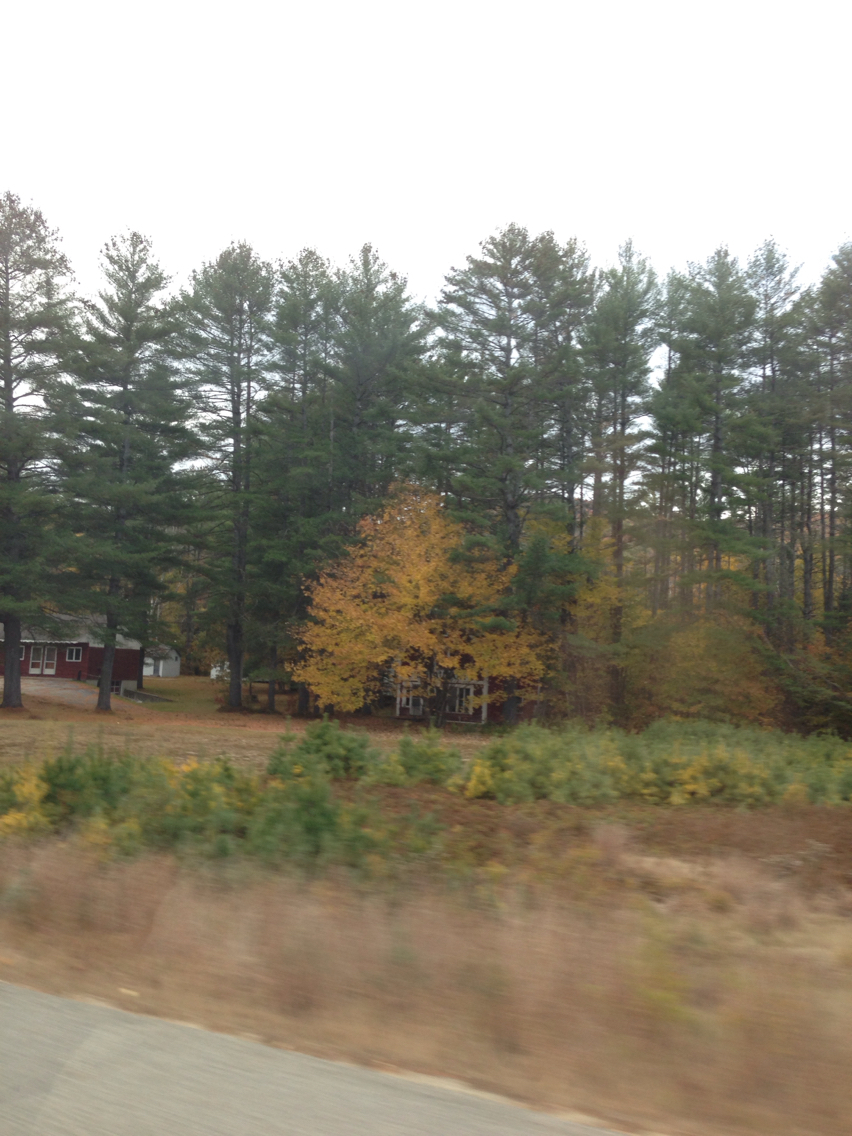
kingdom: Plantae
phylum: Tracheophyta
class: Pinopsida
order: Pinales
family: Pinaceae
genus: Pinus
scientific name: Pinus strobus
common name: Weymouth pine
